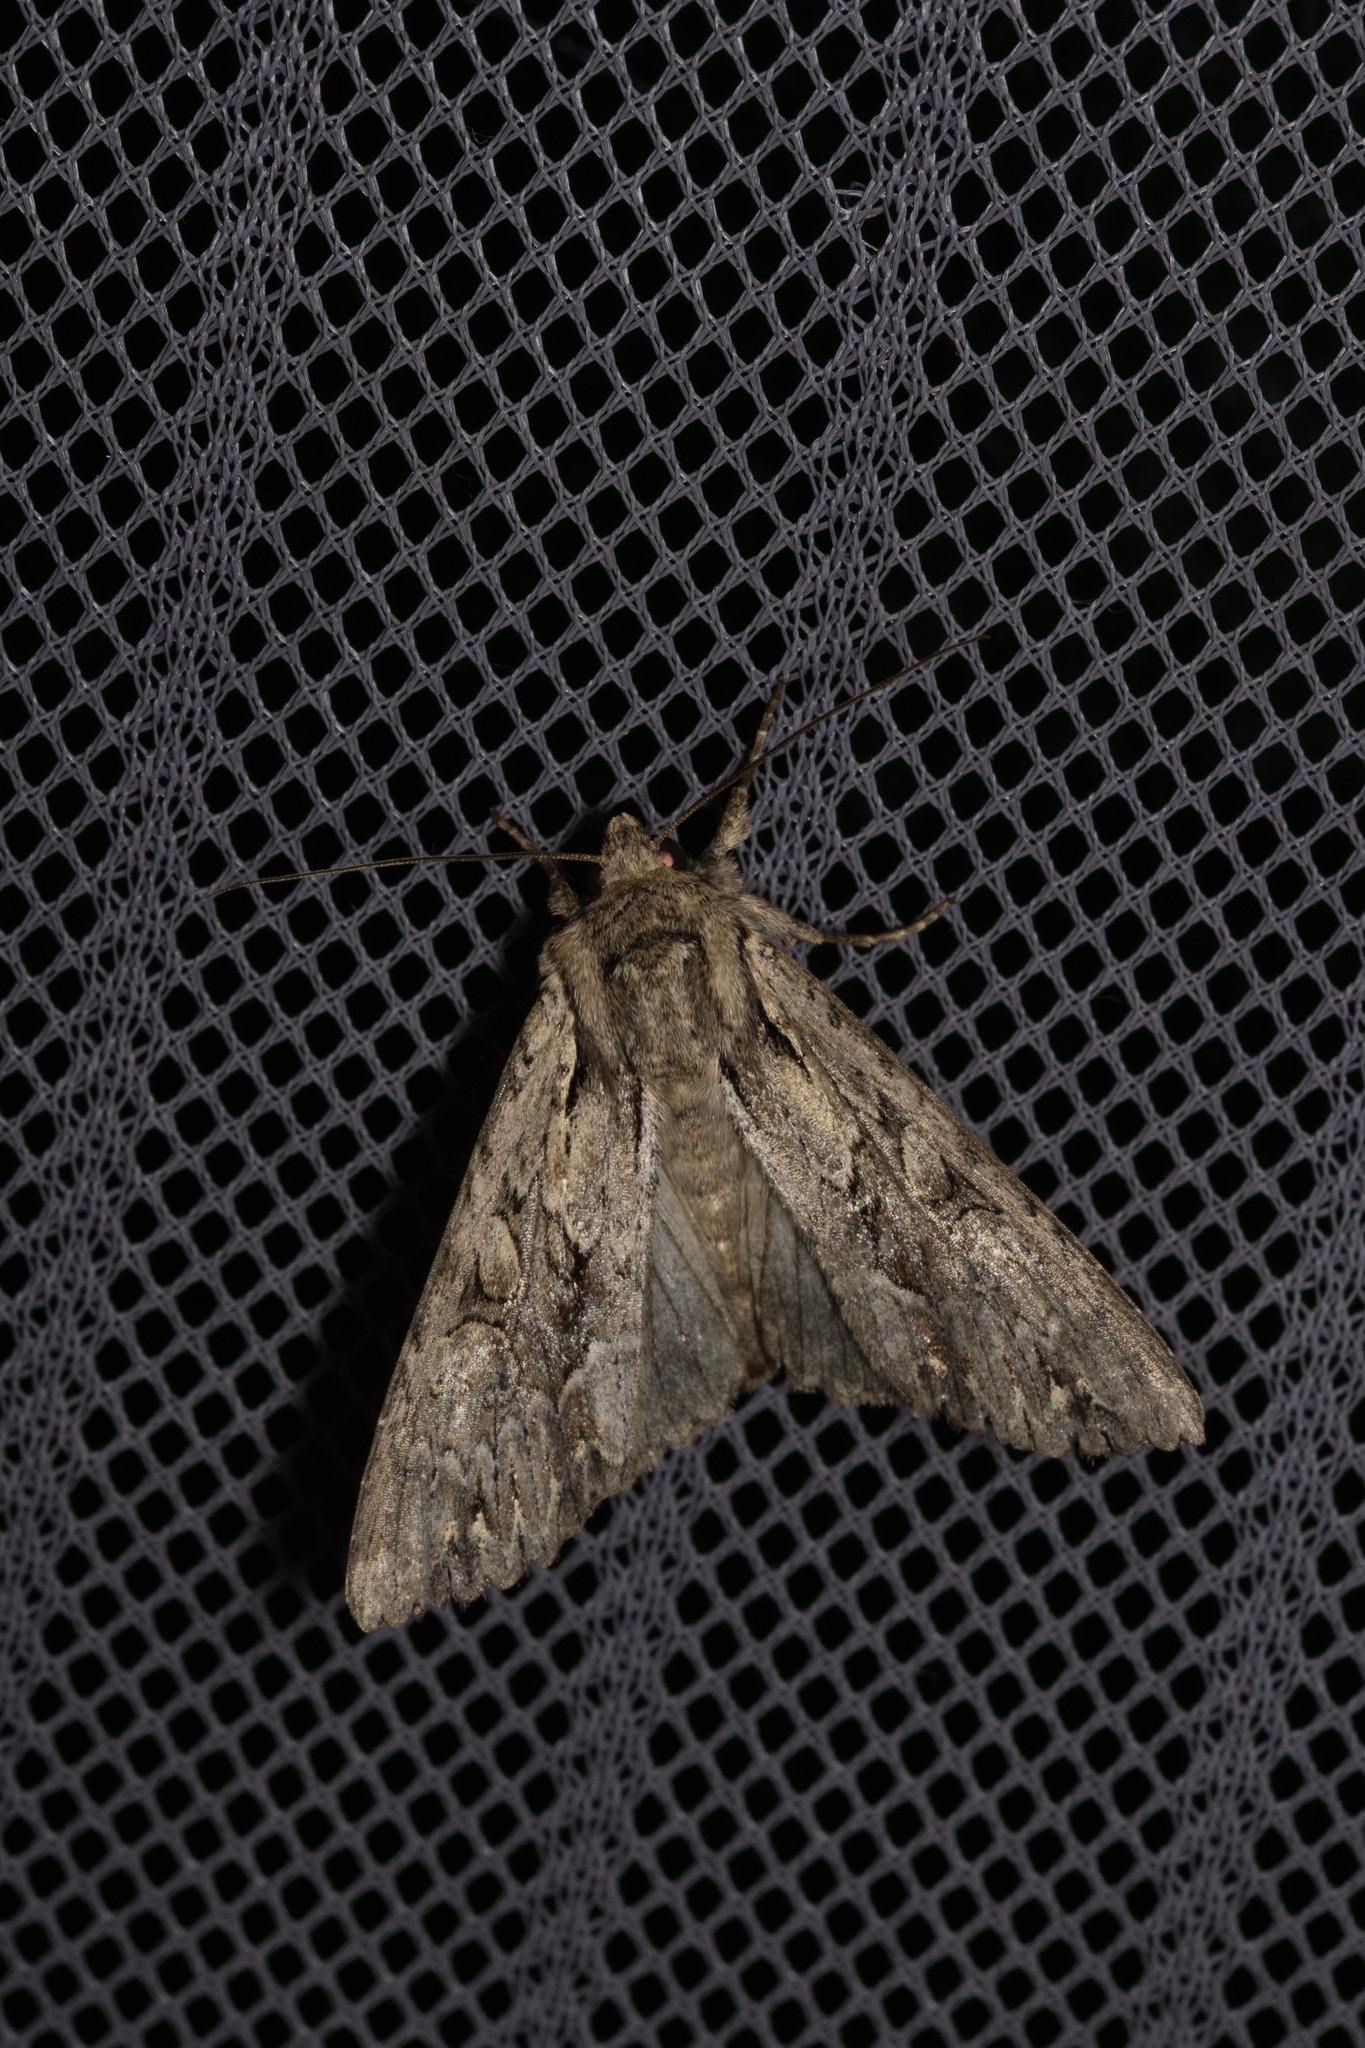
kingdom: Animalia
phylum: Arthropoda
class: Insecta
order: Lepidoptera
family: Noctuidae
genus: Apamea
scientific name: Apamea monoglypha
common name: Dark arches
